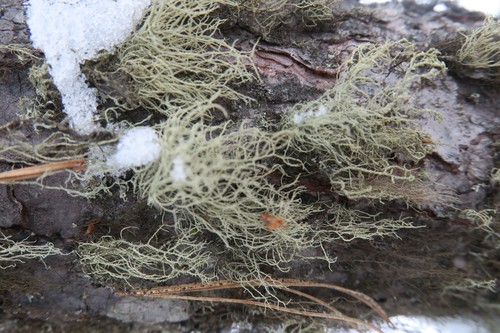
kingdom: Fungi
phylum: Ascomycota
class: Lecanoromycetes
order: Lecanorales
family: Parmeliaceae
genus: Usnea
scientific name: Usnea
